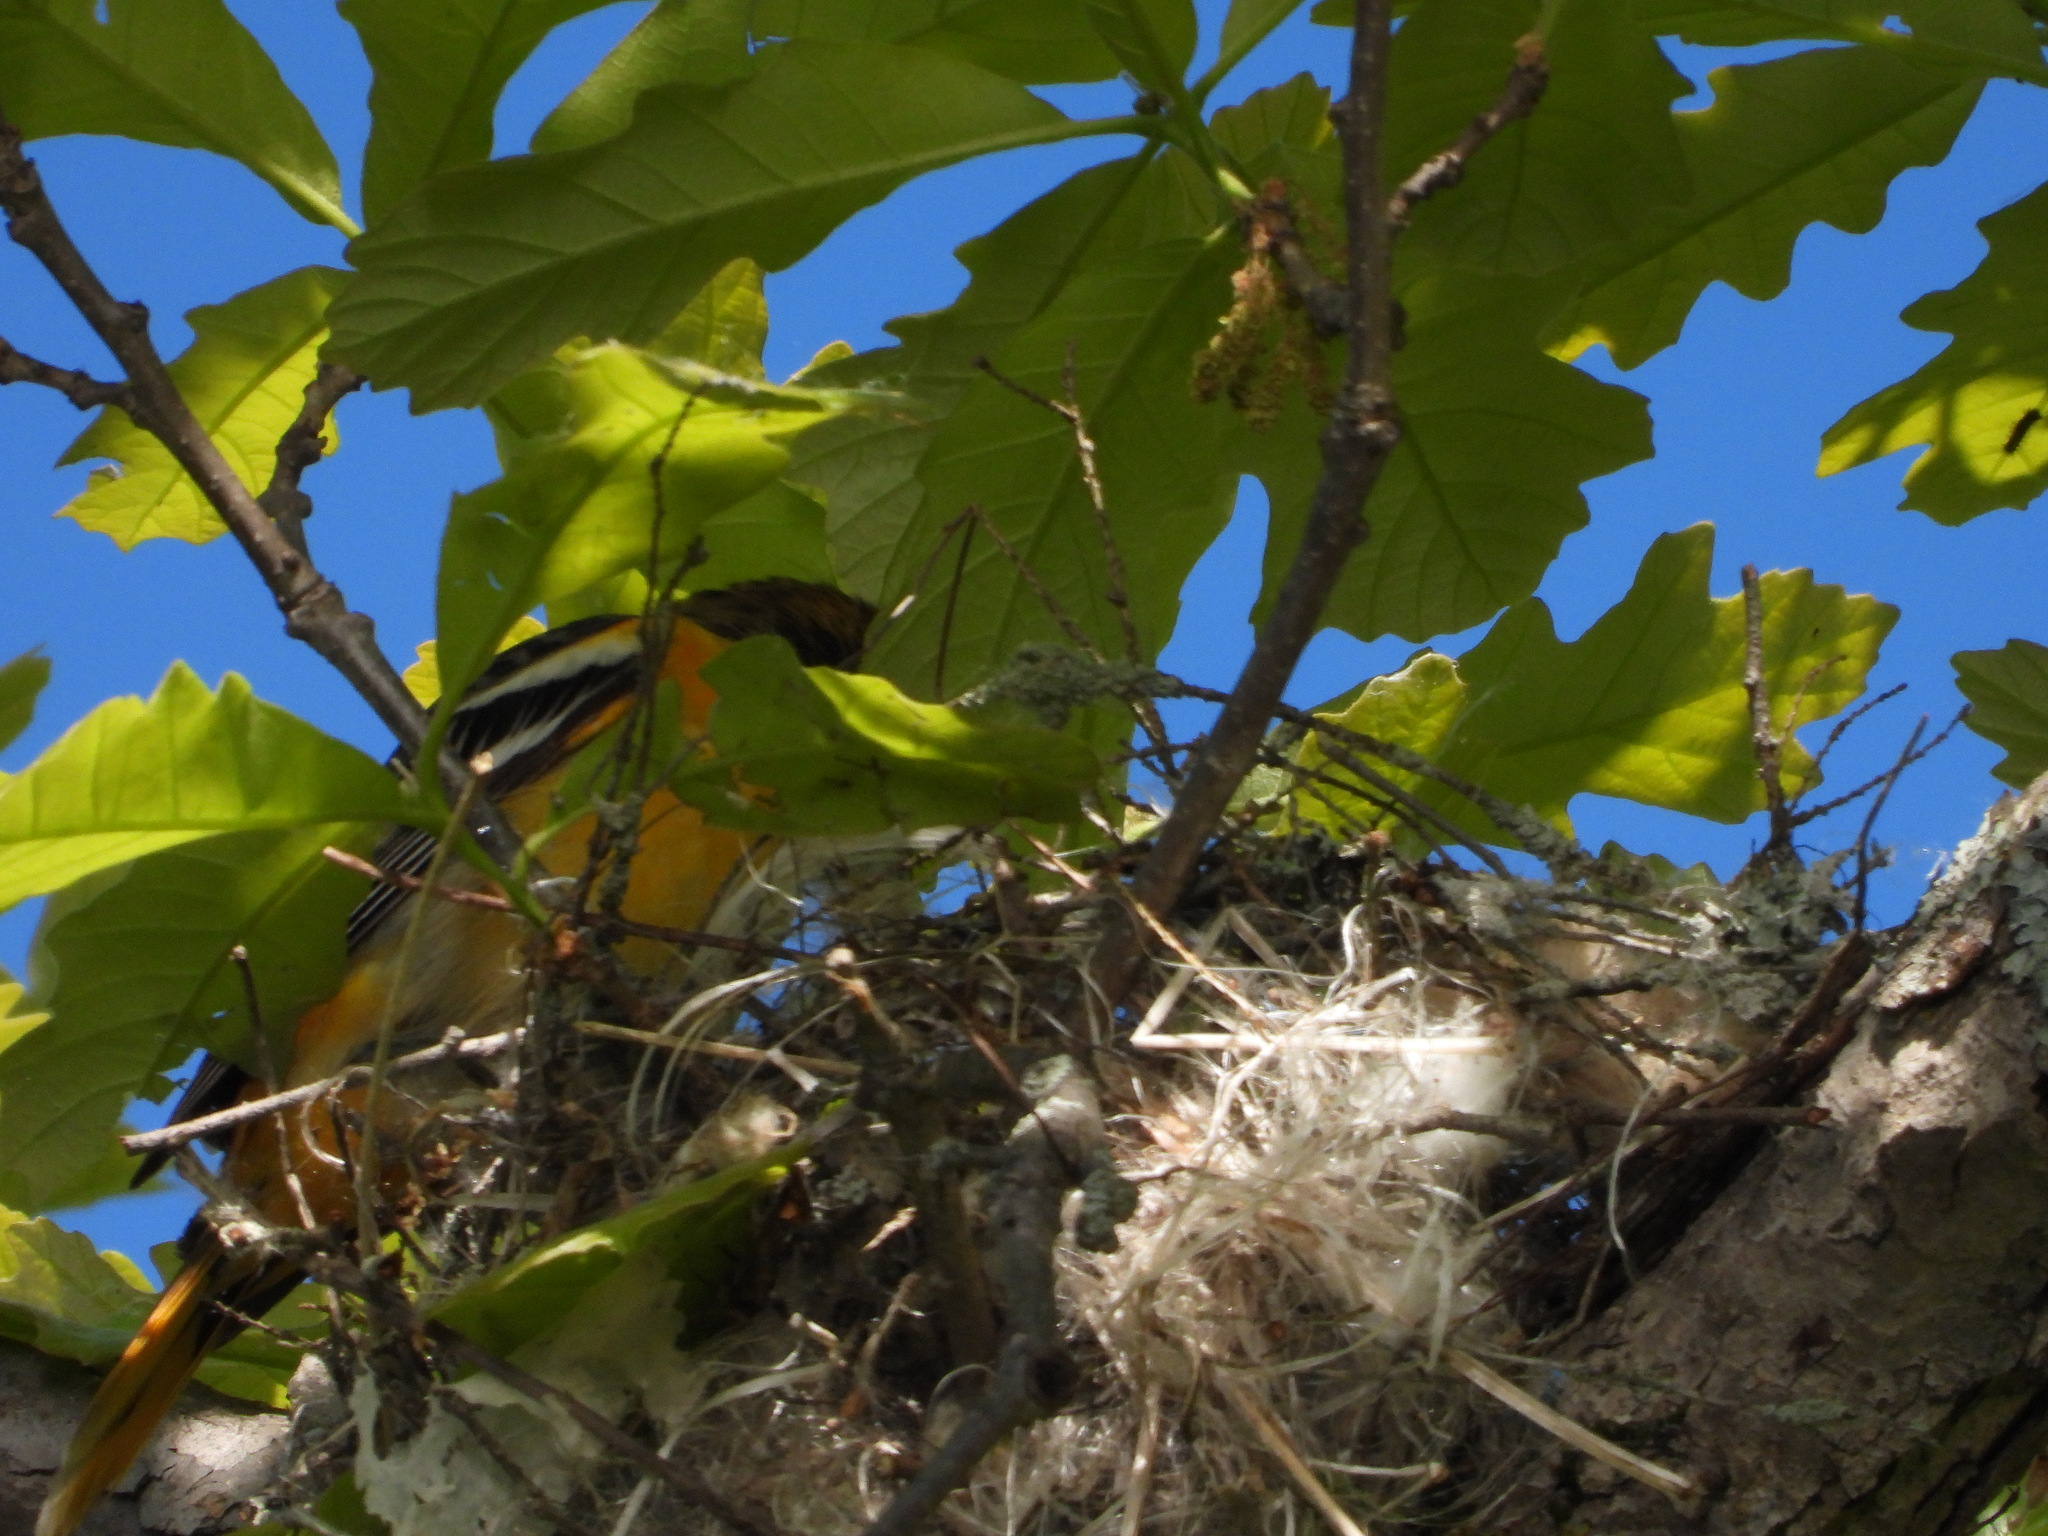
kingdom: Animalia
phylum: Chordata
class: Aves
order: Passeriformes
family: Icteridae
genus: Icterus
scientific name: Icterus galbula
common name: Baltimore oriole
